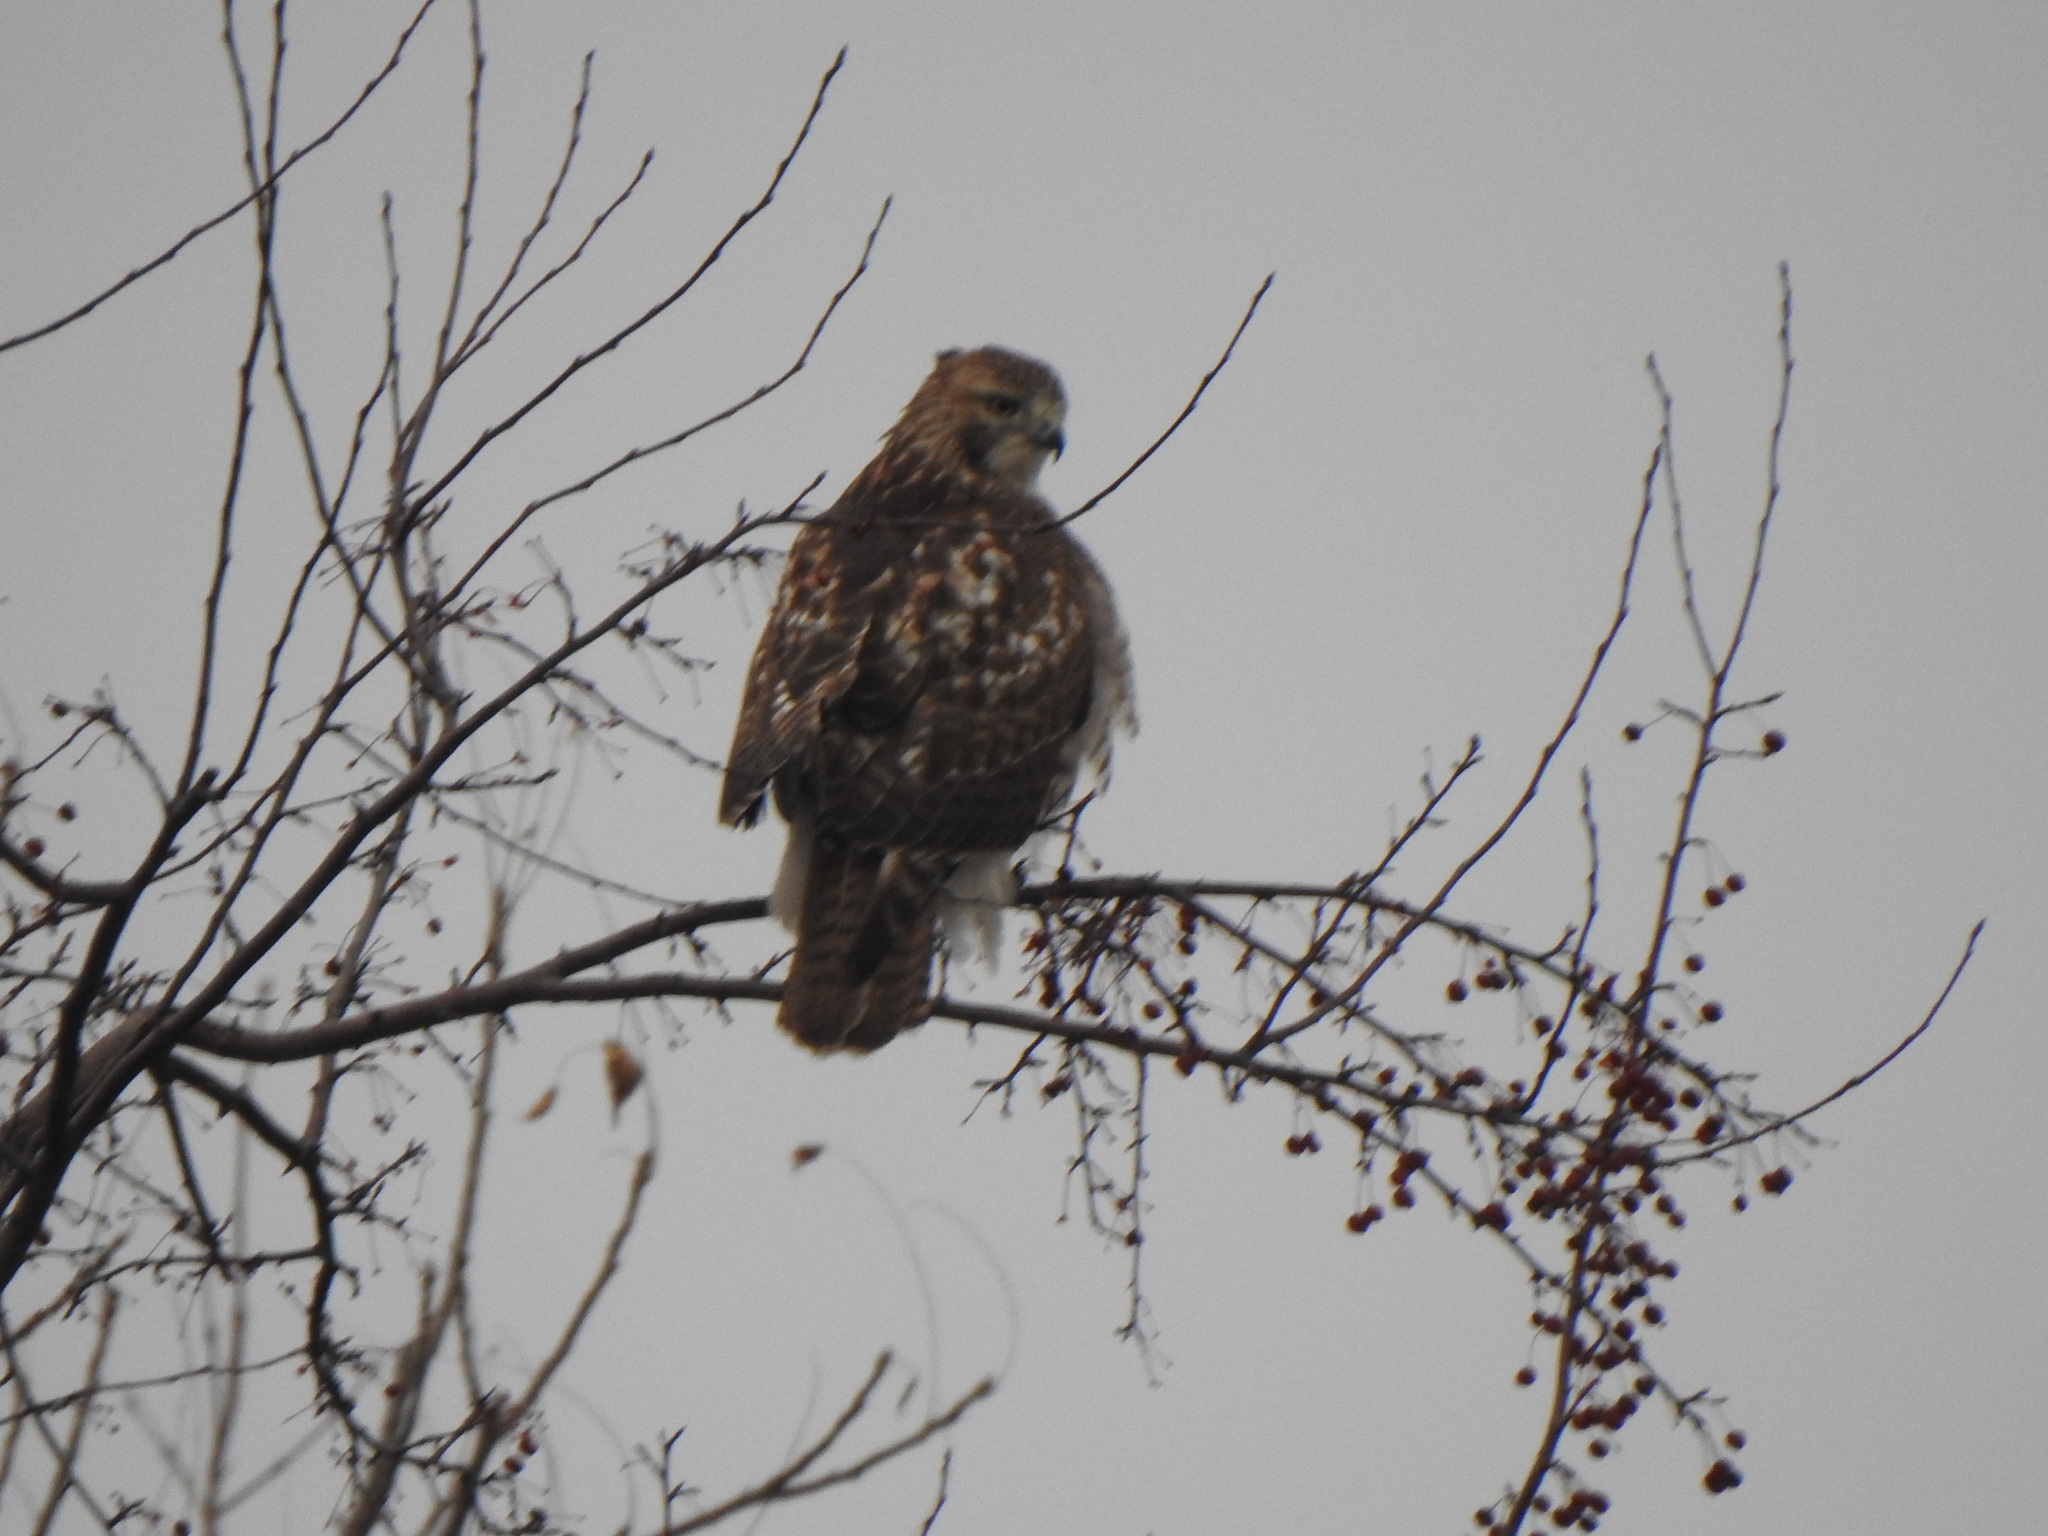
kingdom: Animalia
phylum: Chordata
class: Aves
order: Accipitriformes
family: Accipitridae
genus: Buteo
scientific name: Buteo jamaicensis
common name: Red-tailed hawk
